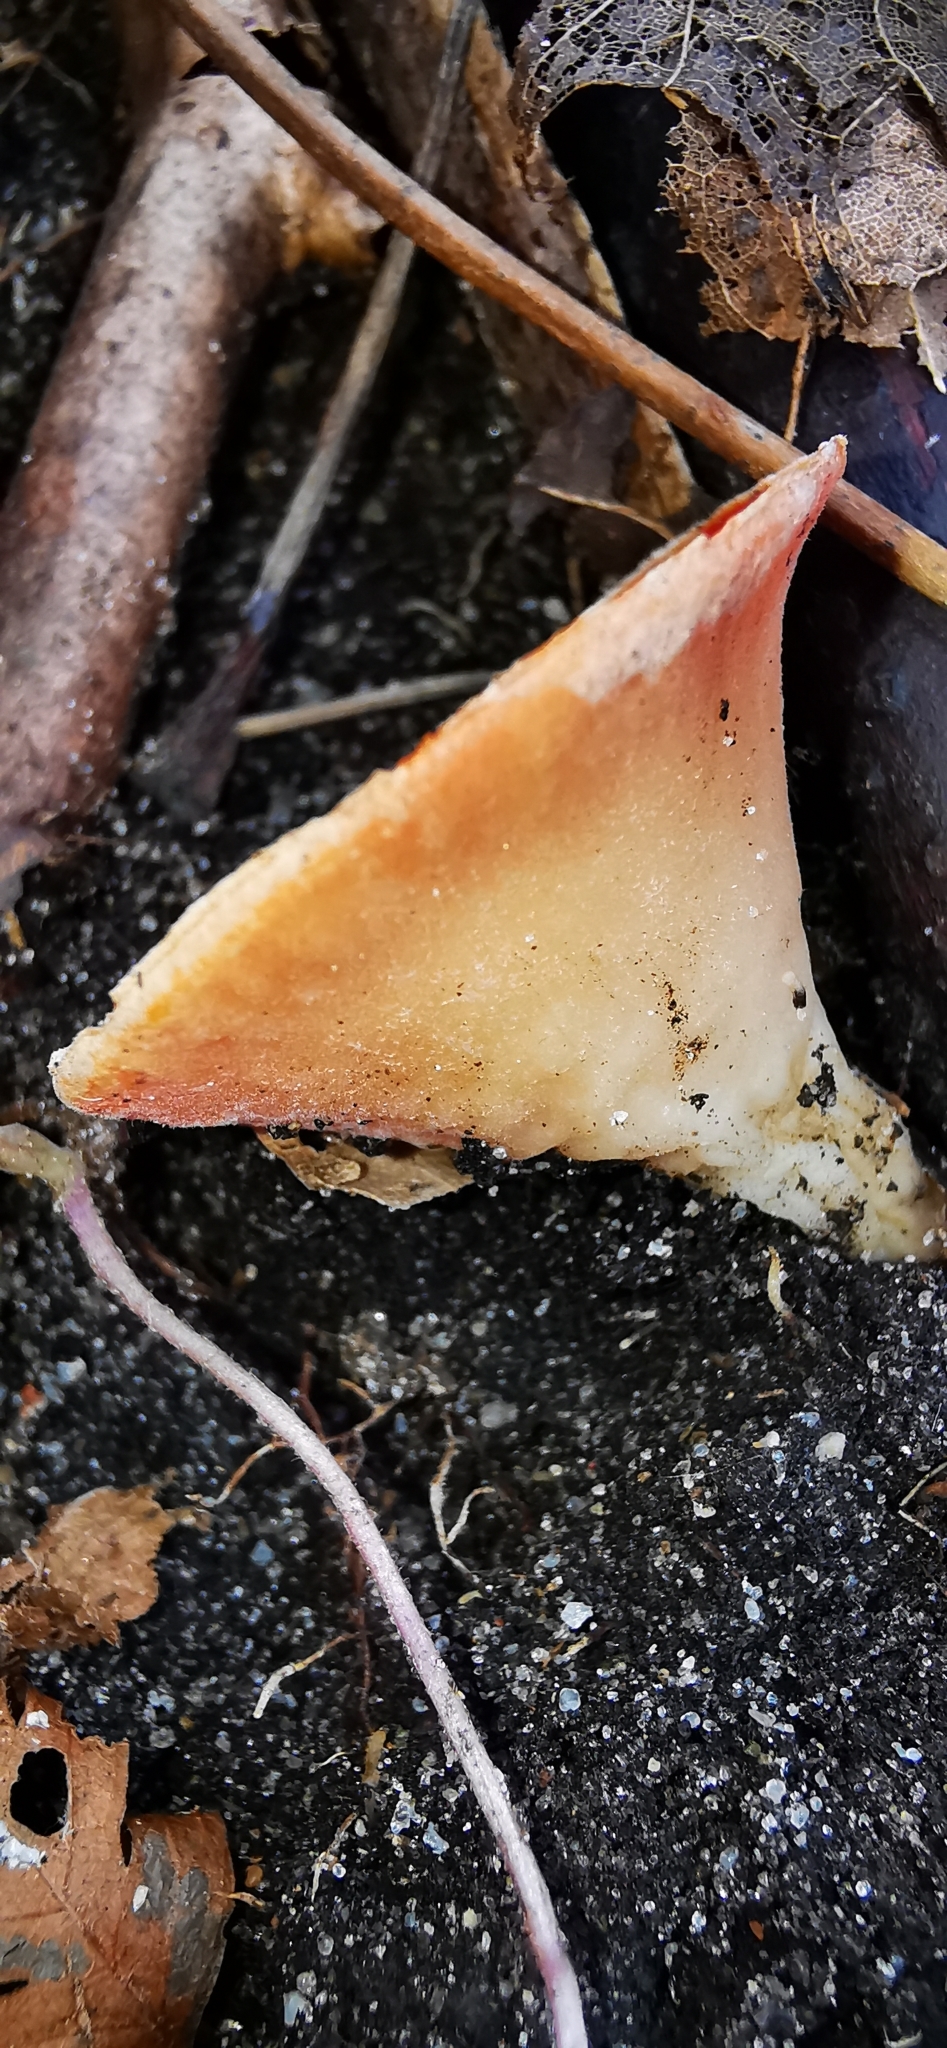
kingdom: Fungi
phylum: Ascomycota
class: Pezizomycetes
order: Pezizales
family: Sarcoscyphaceae
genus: Sarcoscypha
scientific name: Sarcoscypha
